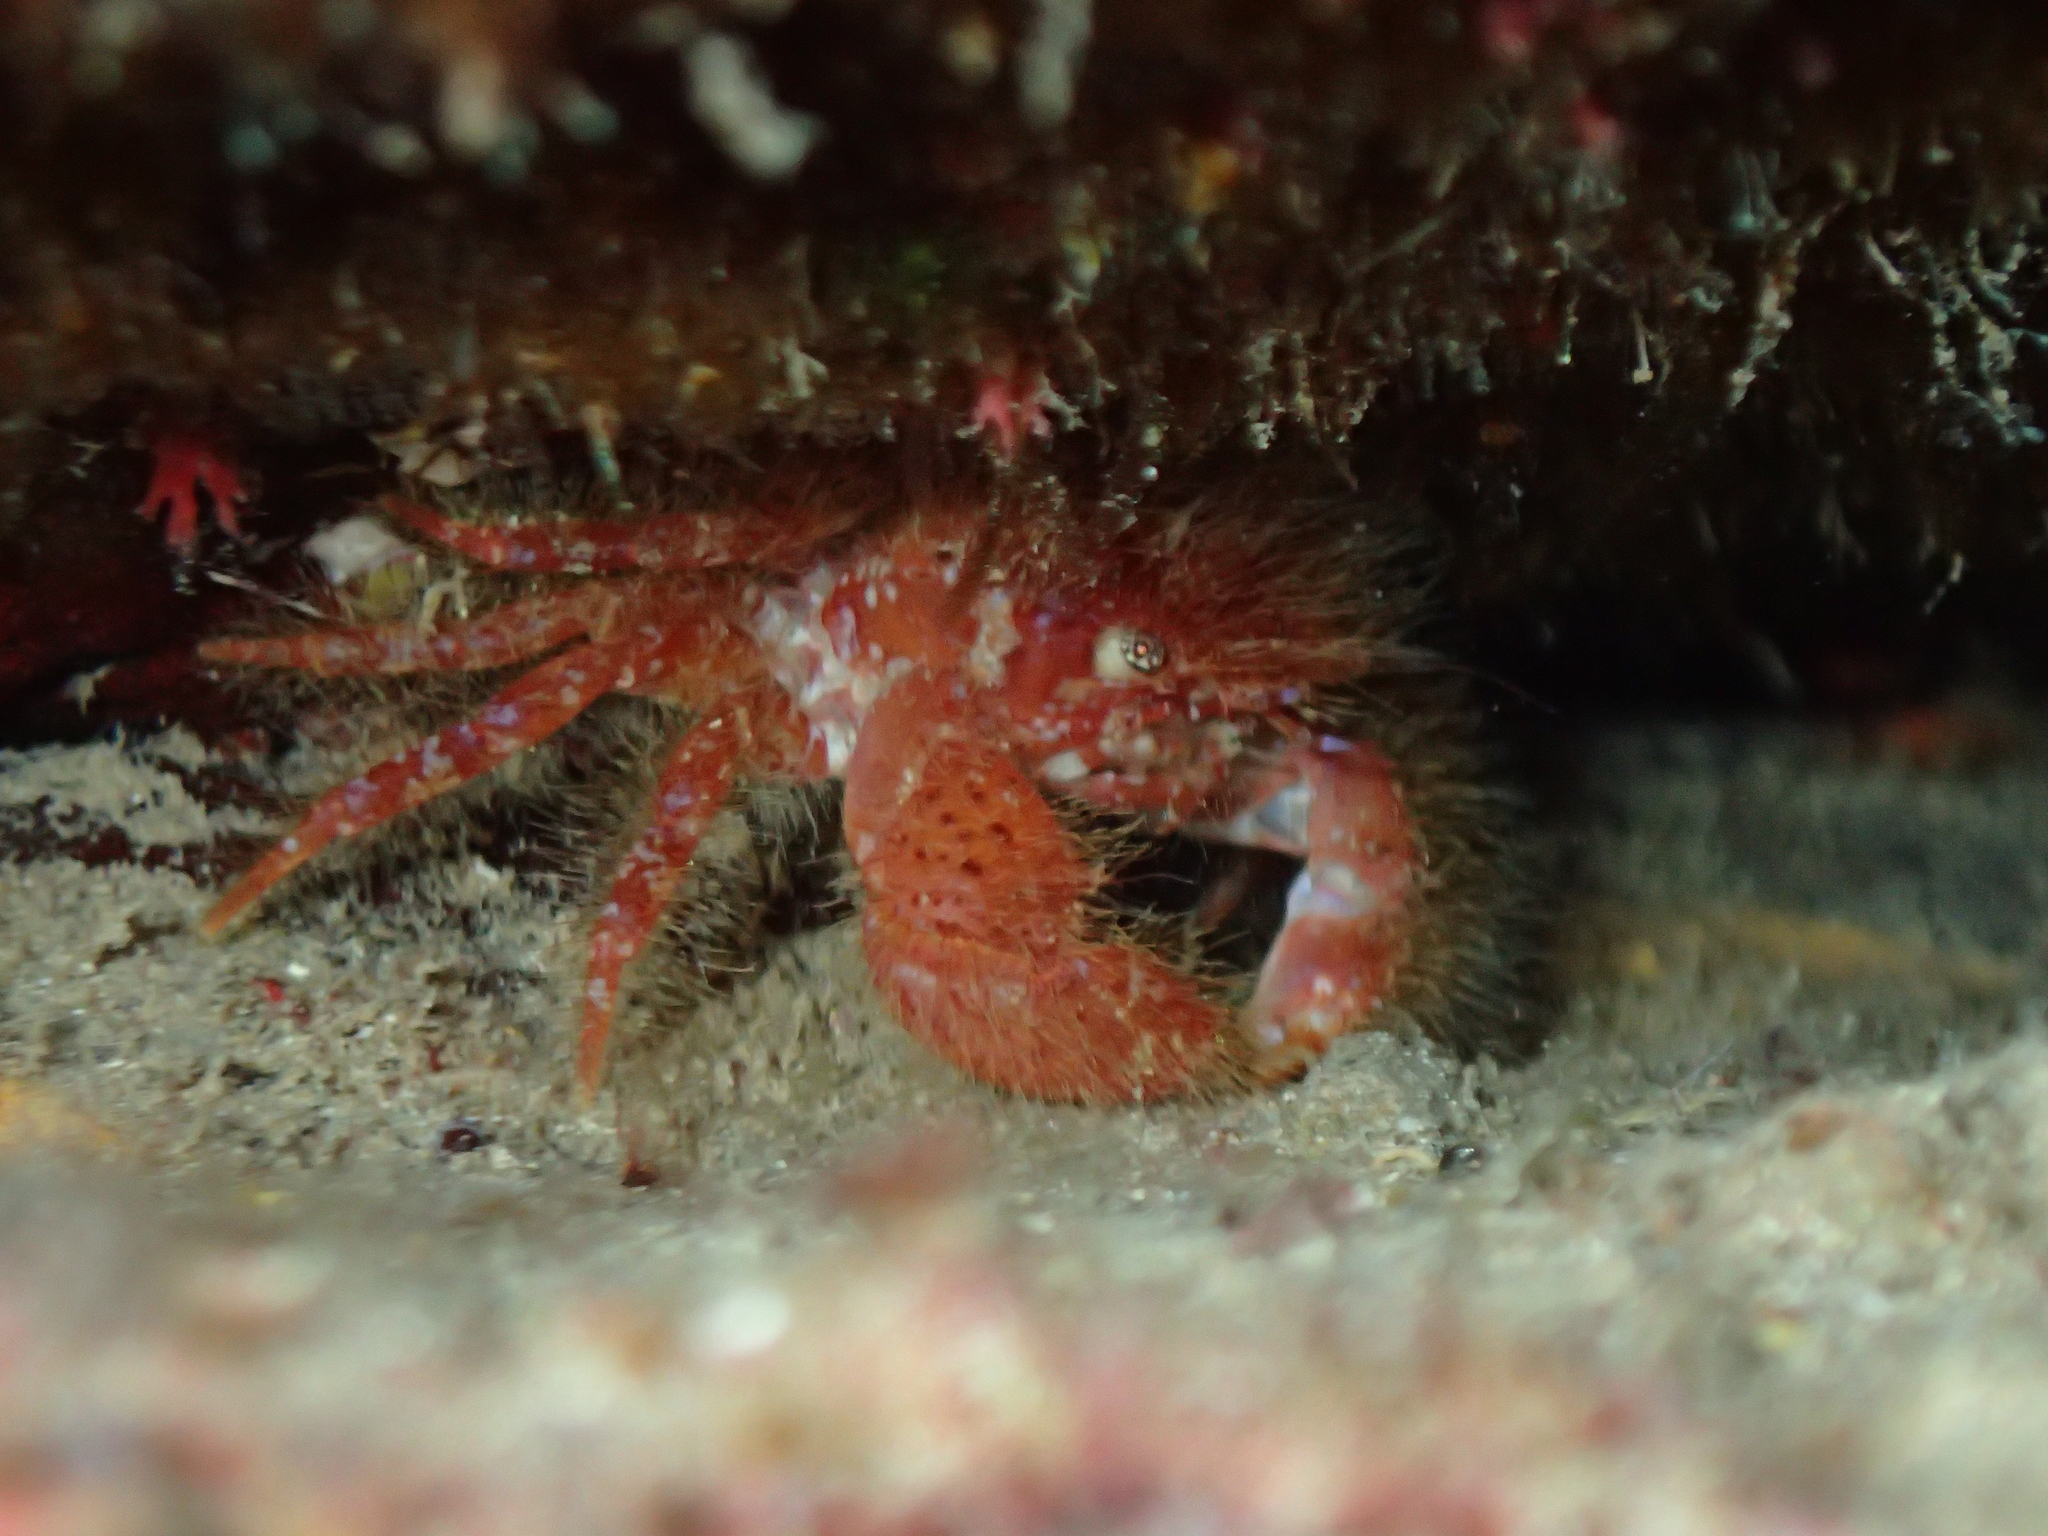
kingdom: Animalia
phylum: Arthropoda
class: Malacostraca
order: Decapoda
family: Pilumnidae
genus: Pilumnus
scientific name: Pilumnus villosissimus
